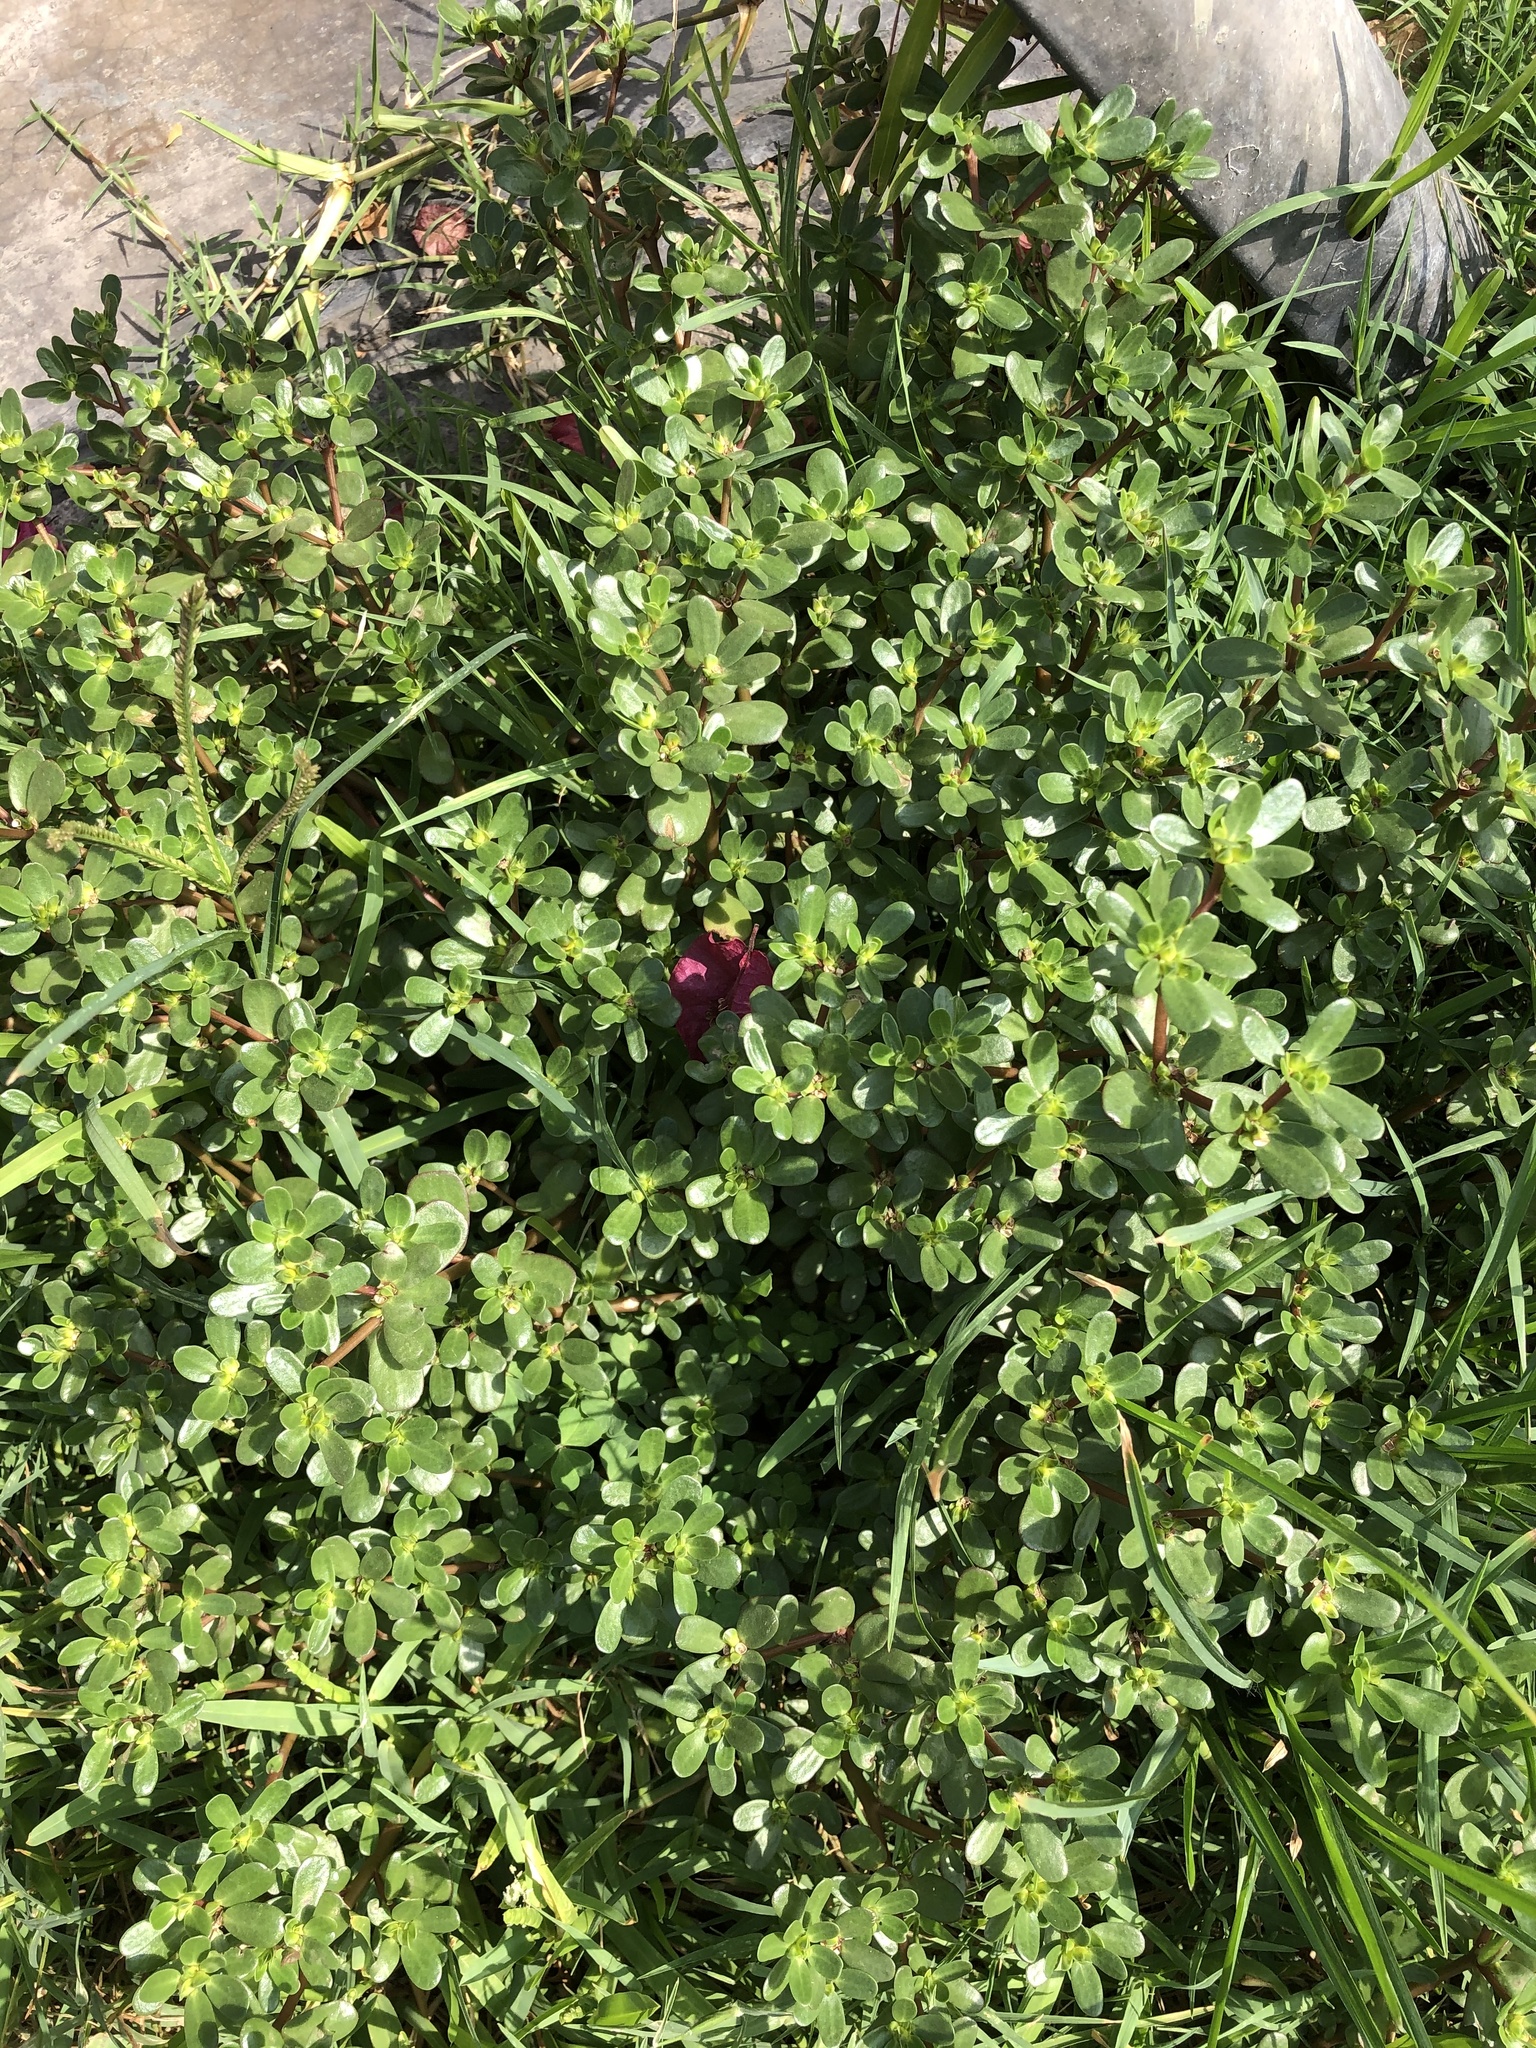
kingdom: Plantae
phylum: Tracheophyta
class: Magnoliopsida
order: Caryophyllales
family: Portulacaceae
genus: Portulaca
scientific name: Portulaca oleracea
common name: Common purslane
